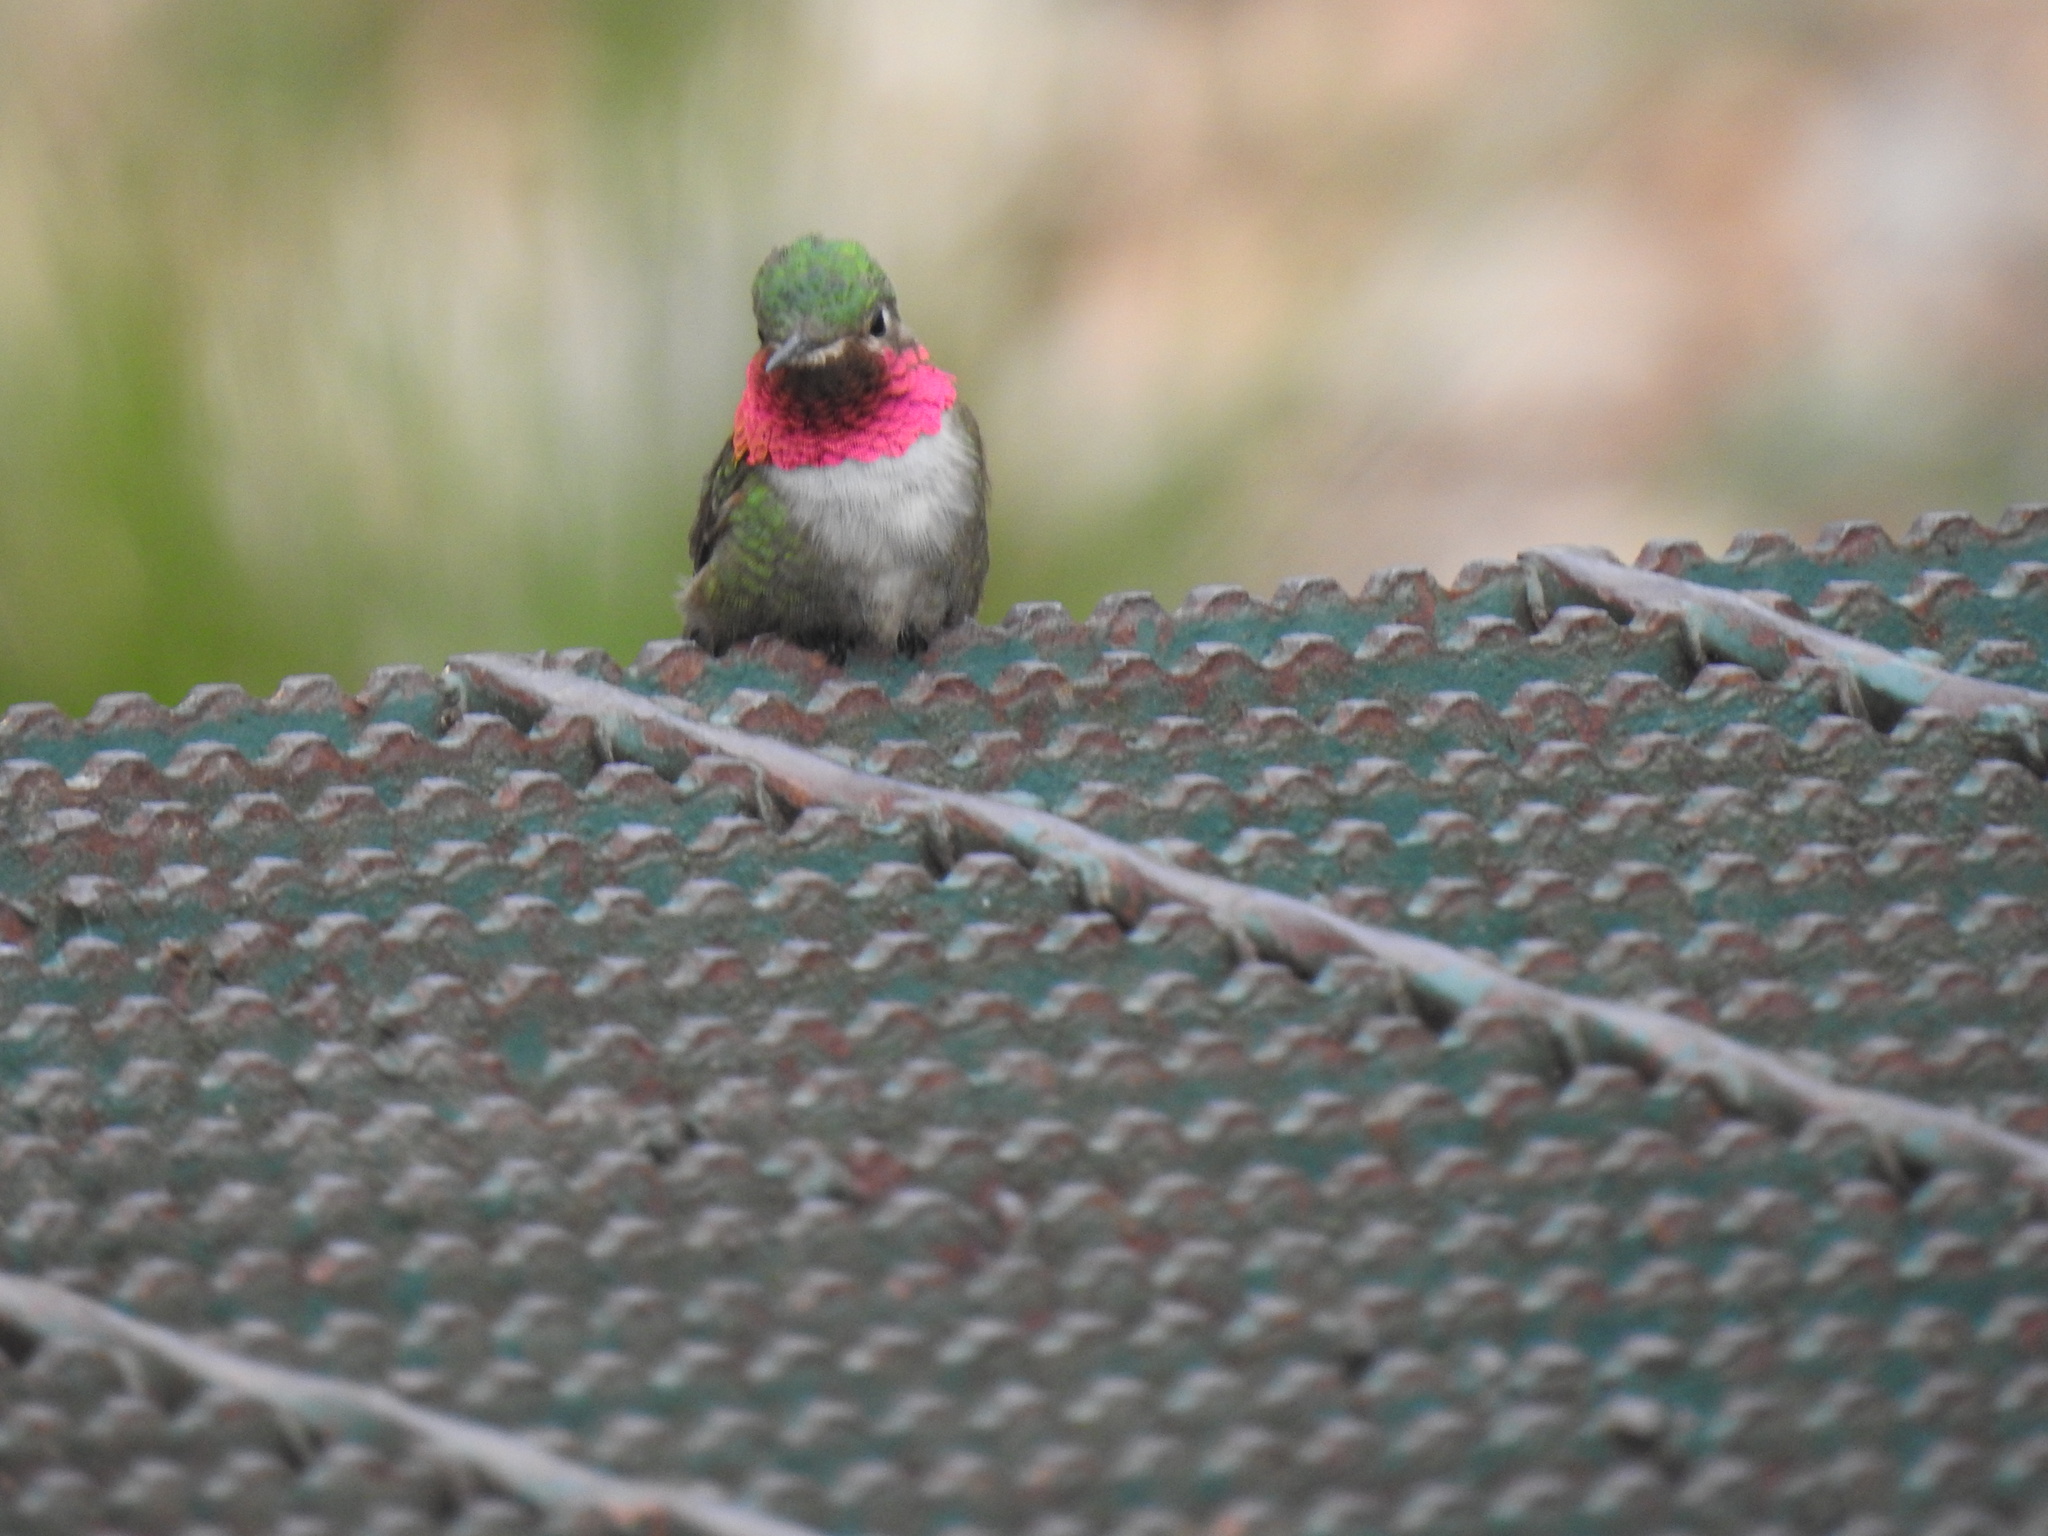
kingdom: Animalia
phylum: Chordata
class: Aves
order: Apodiformes
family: Trochilidae
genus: Selasphorus
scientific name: Selasphorus platycercus
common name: Broad-tailed hummingbird
